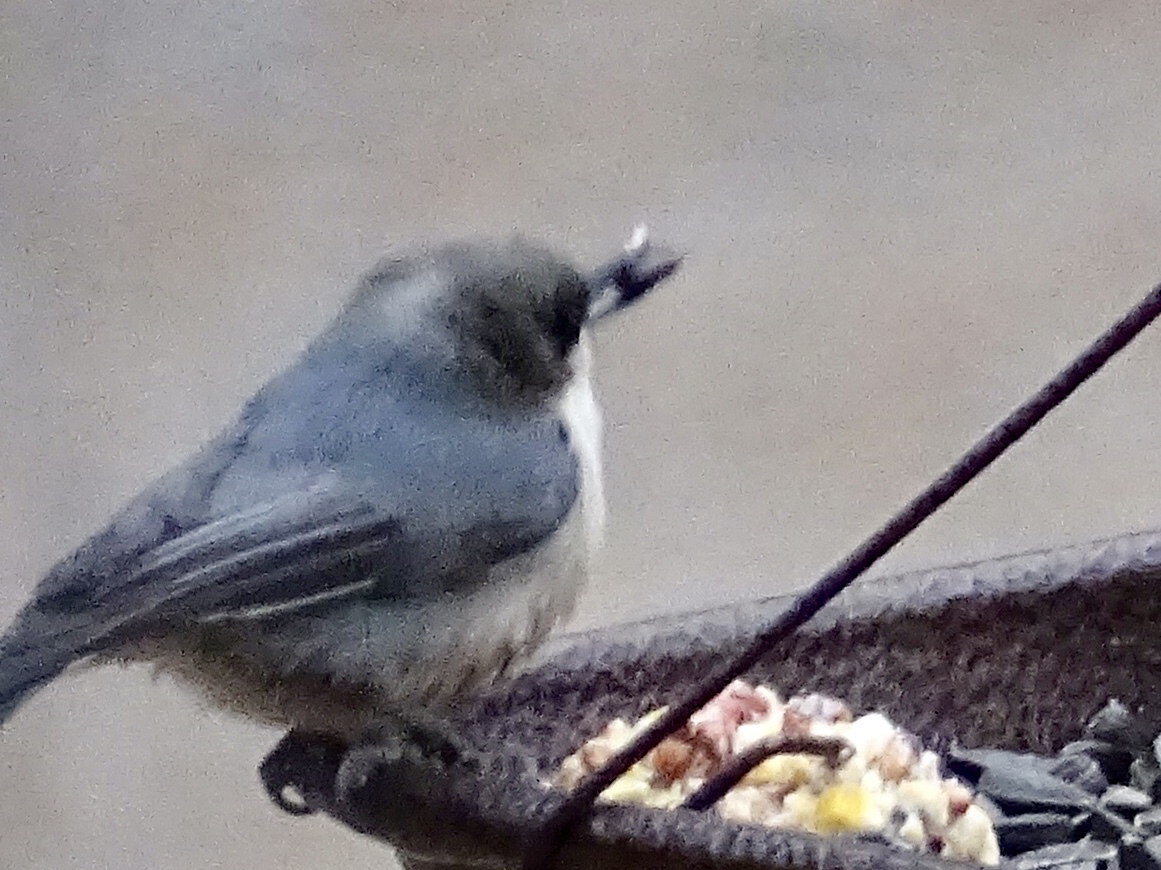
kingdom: Animalia
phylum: Chordata
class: Aves
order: Passeriformes
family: Sittidae
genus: Sitta
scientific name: Sitta pygmaea
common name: Pygmy nuthatch
